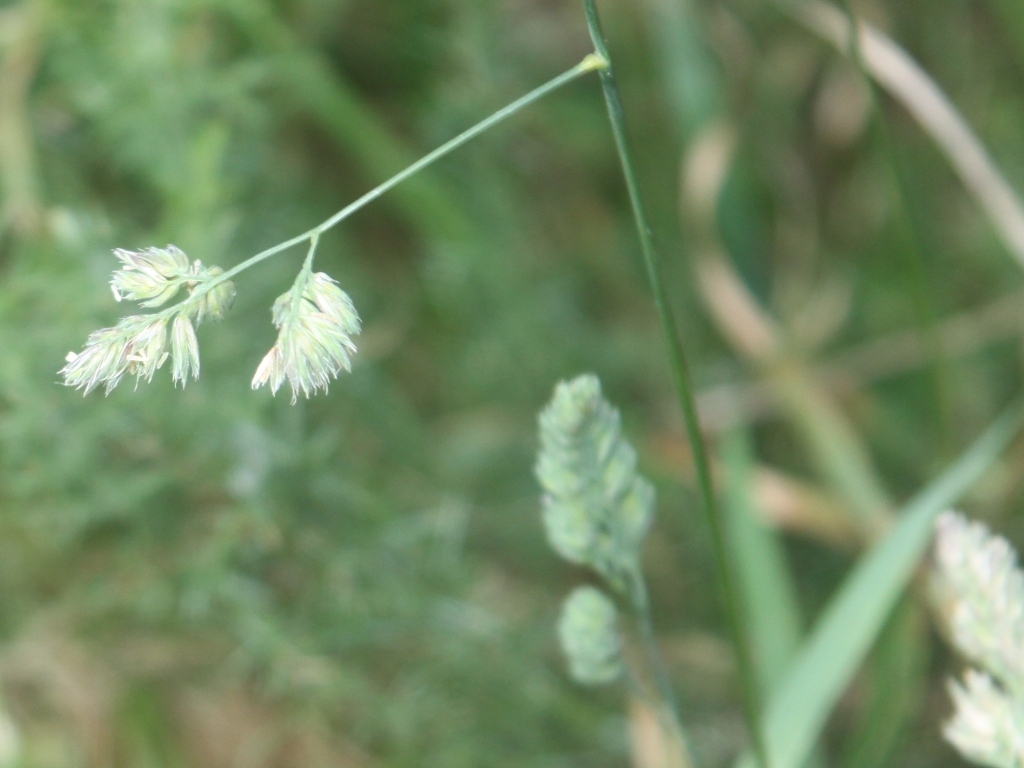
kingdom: Plantae
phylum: Tracheophyta
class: Liliopsida
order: Poales
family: Poaceae
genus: Dactylis
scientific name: Dactylis glomerata
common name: Orchardgrass
